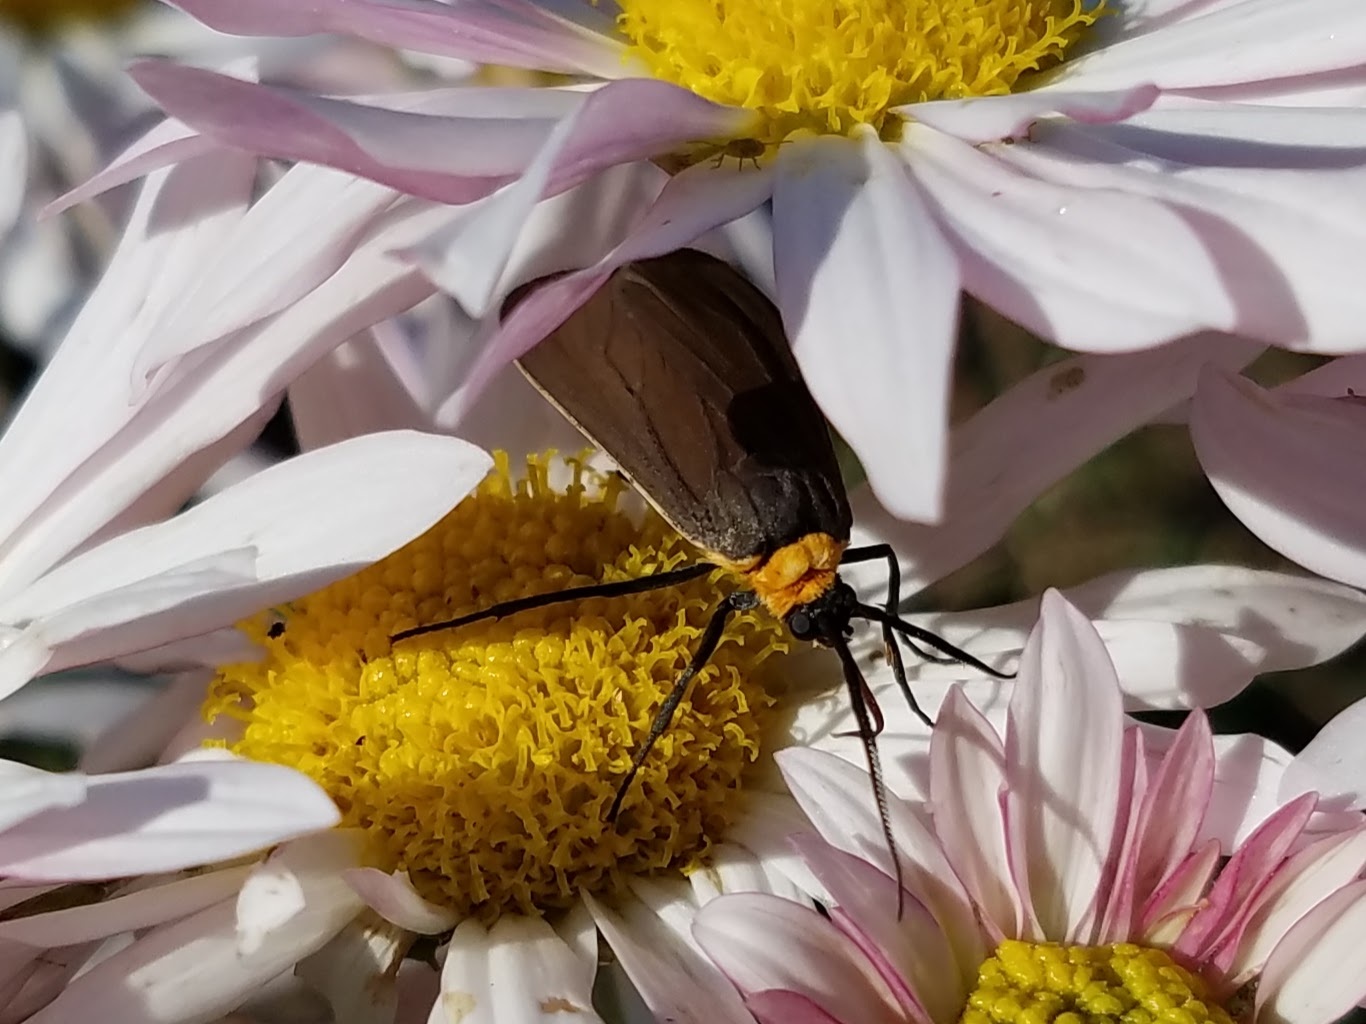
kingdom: Animalia
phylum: Arthropoda
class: Insecta
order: Lepidoptera
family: Erebidae
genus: Cisseps
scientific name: Cisseps fulvicollis
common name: Yellow-collared scape moth
